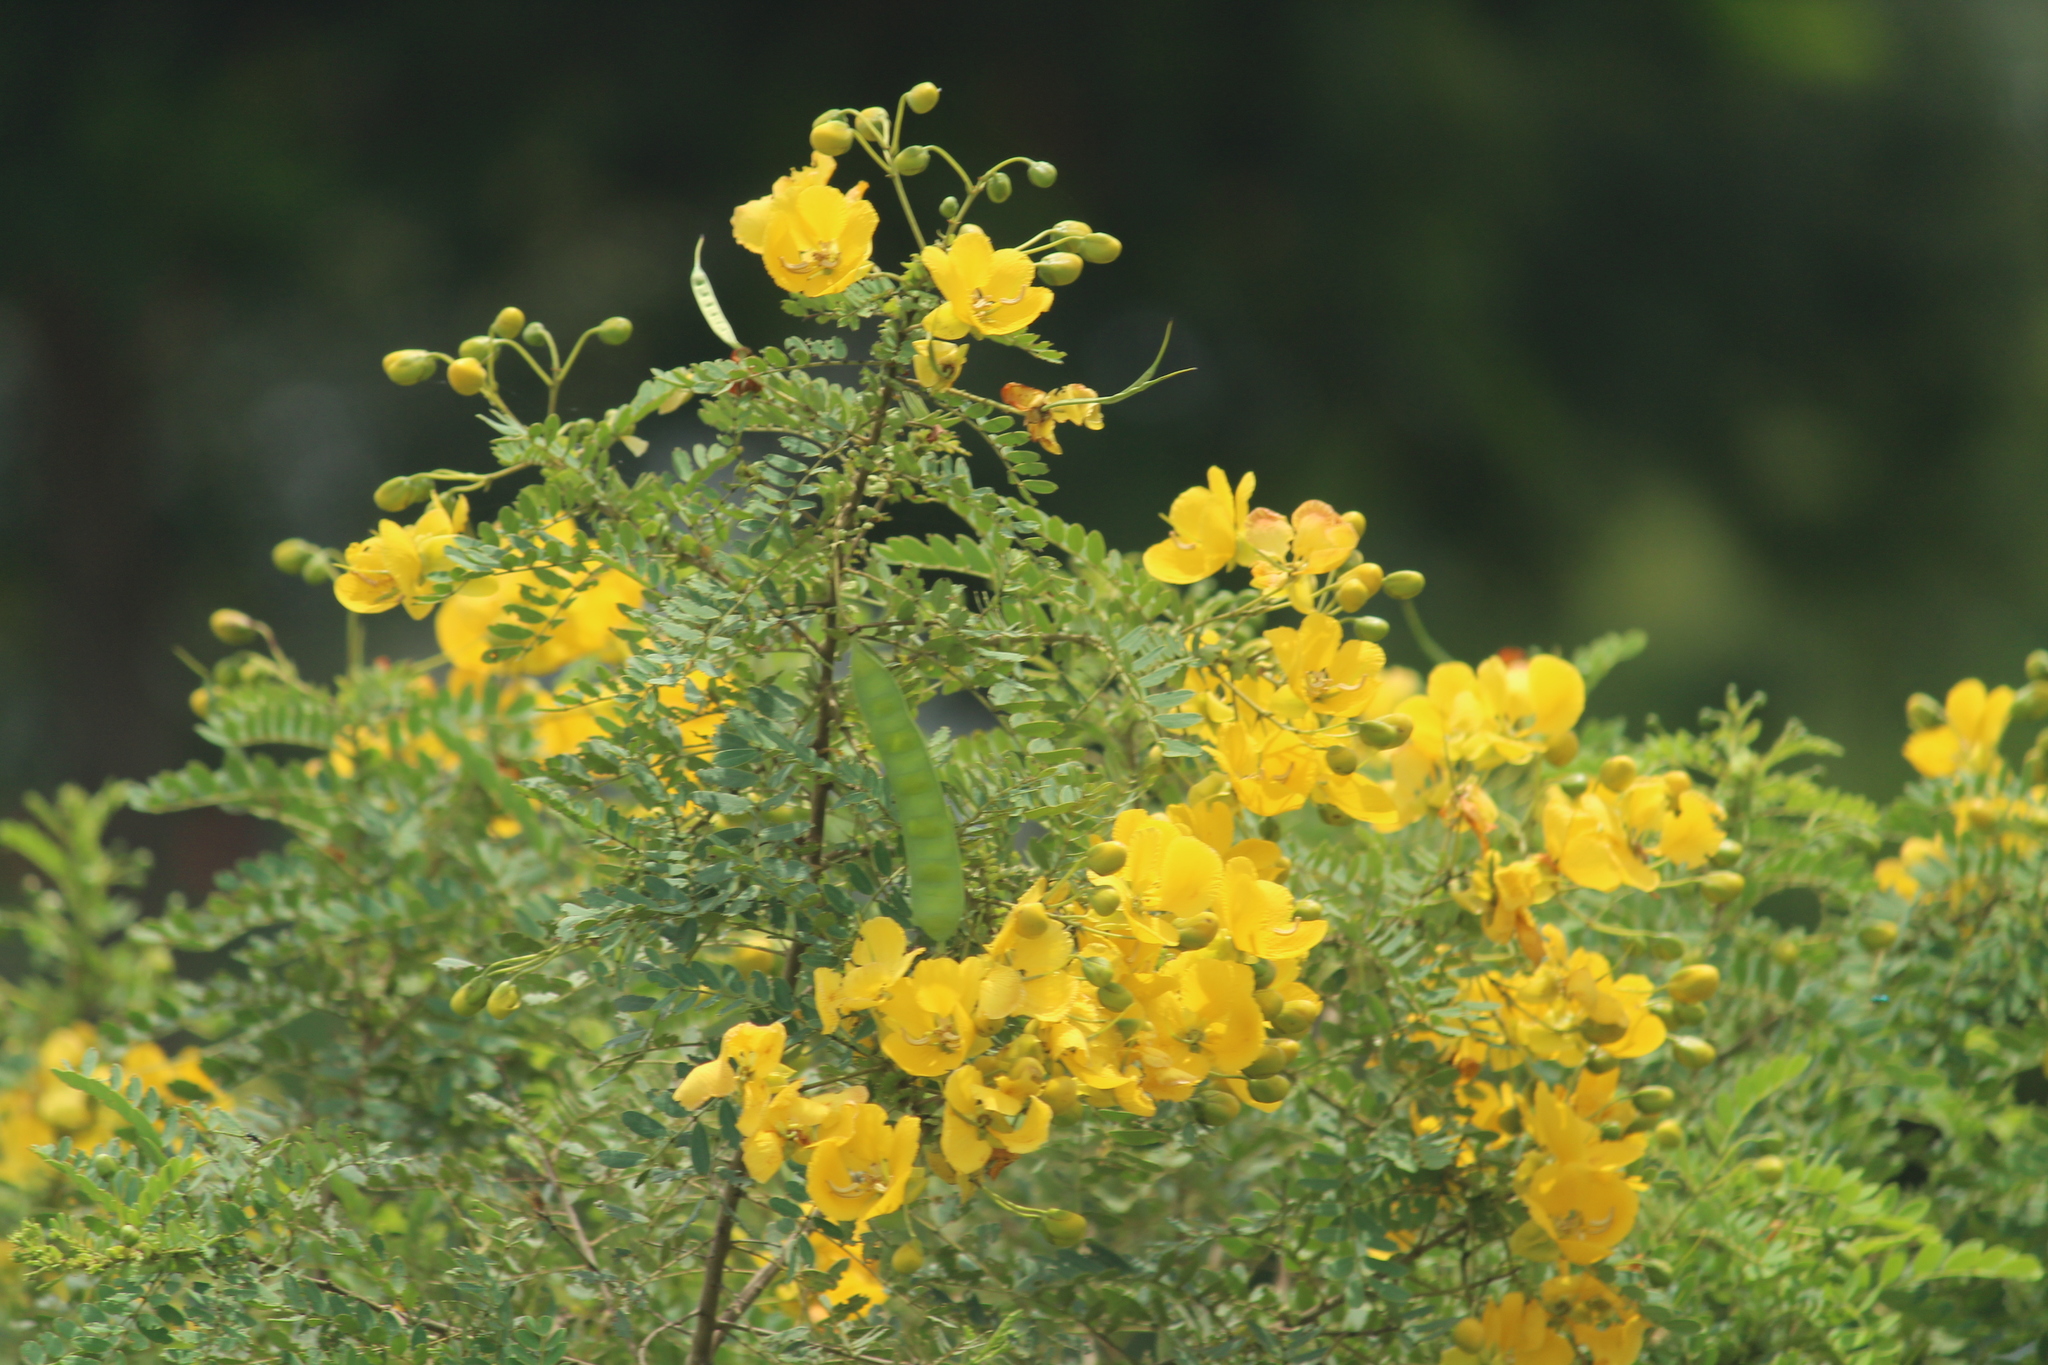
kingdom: Plantae
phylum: Tracheophyta
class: Magnoliopsida
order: Fabales
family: Fabaceae
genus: Senna
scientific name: Senna auriculata
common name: Tanner's cassia
